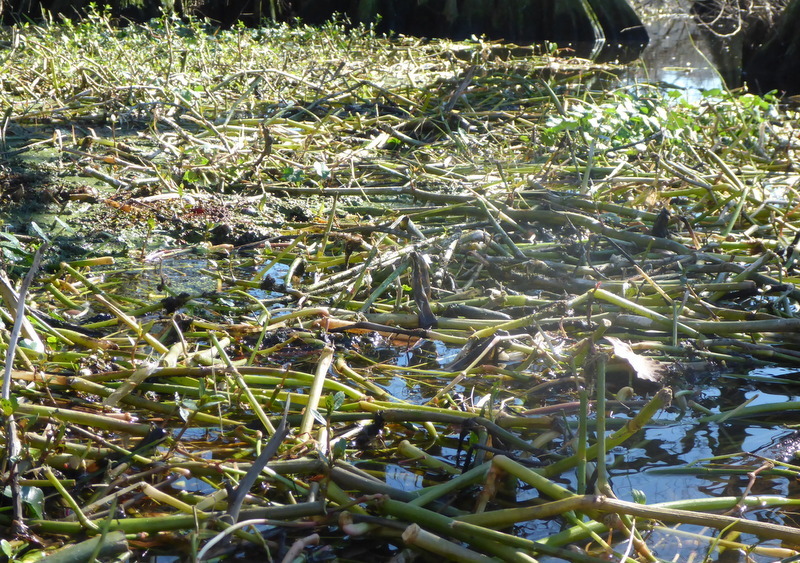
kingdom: Plantae
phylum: Tracheophyta
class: Magnoliopsida
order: Caryophyllales
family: Amaranthaceae
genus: Alternanthera
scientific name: Alternanthera philoxeroides
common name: Alligatorweed
